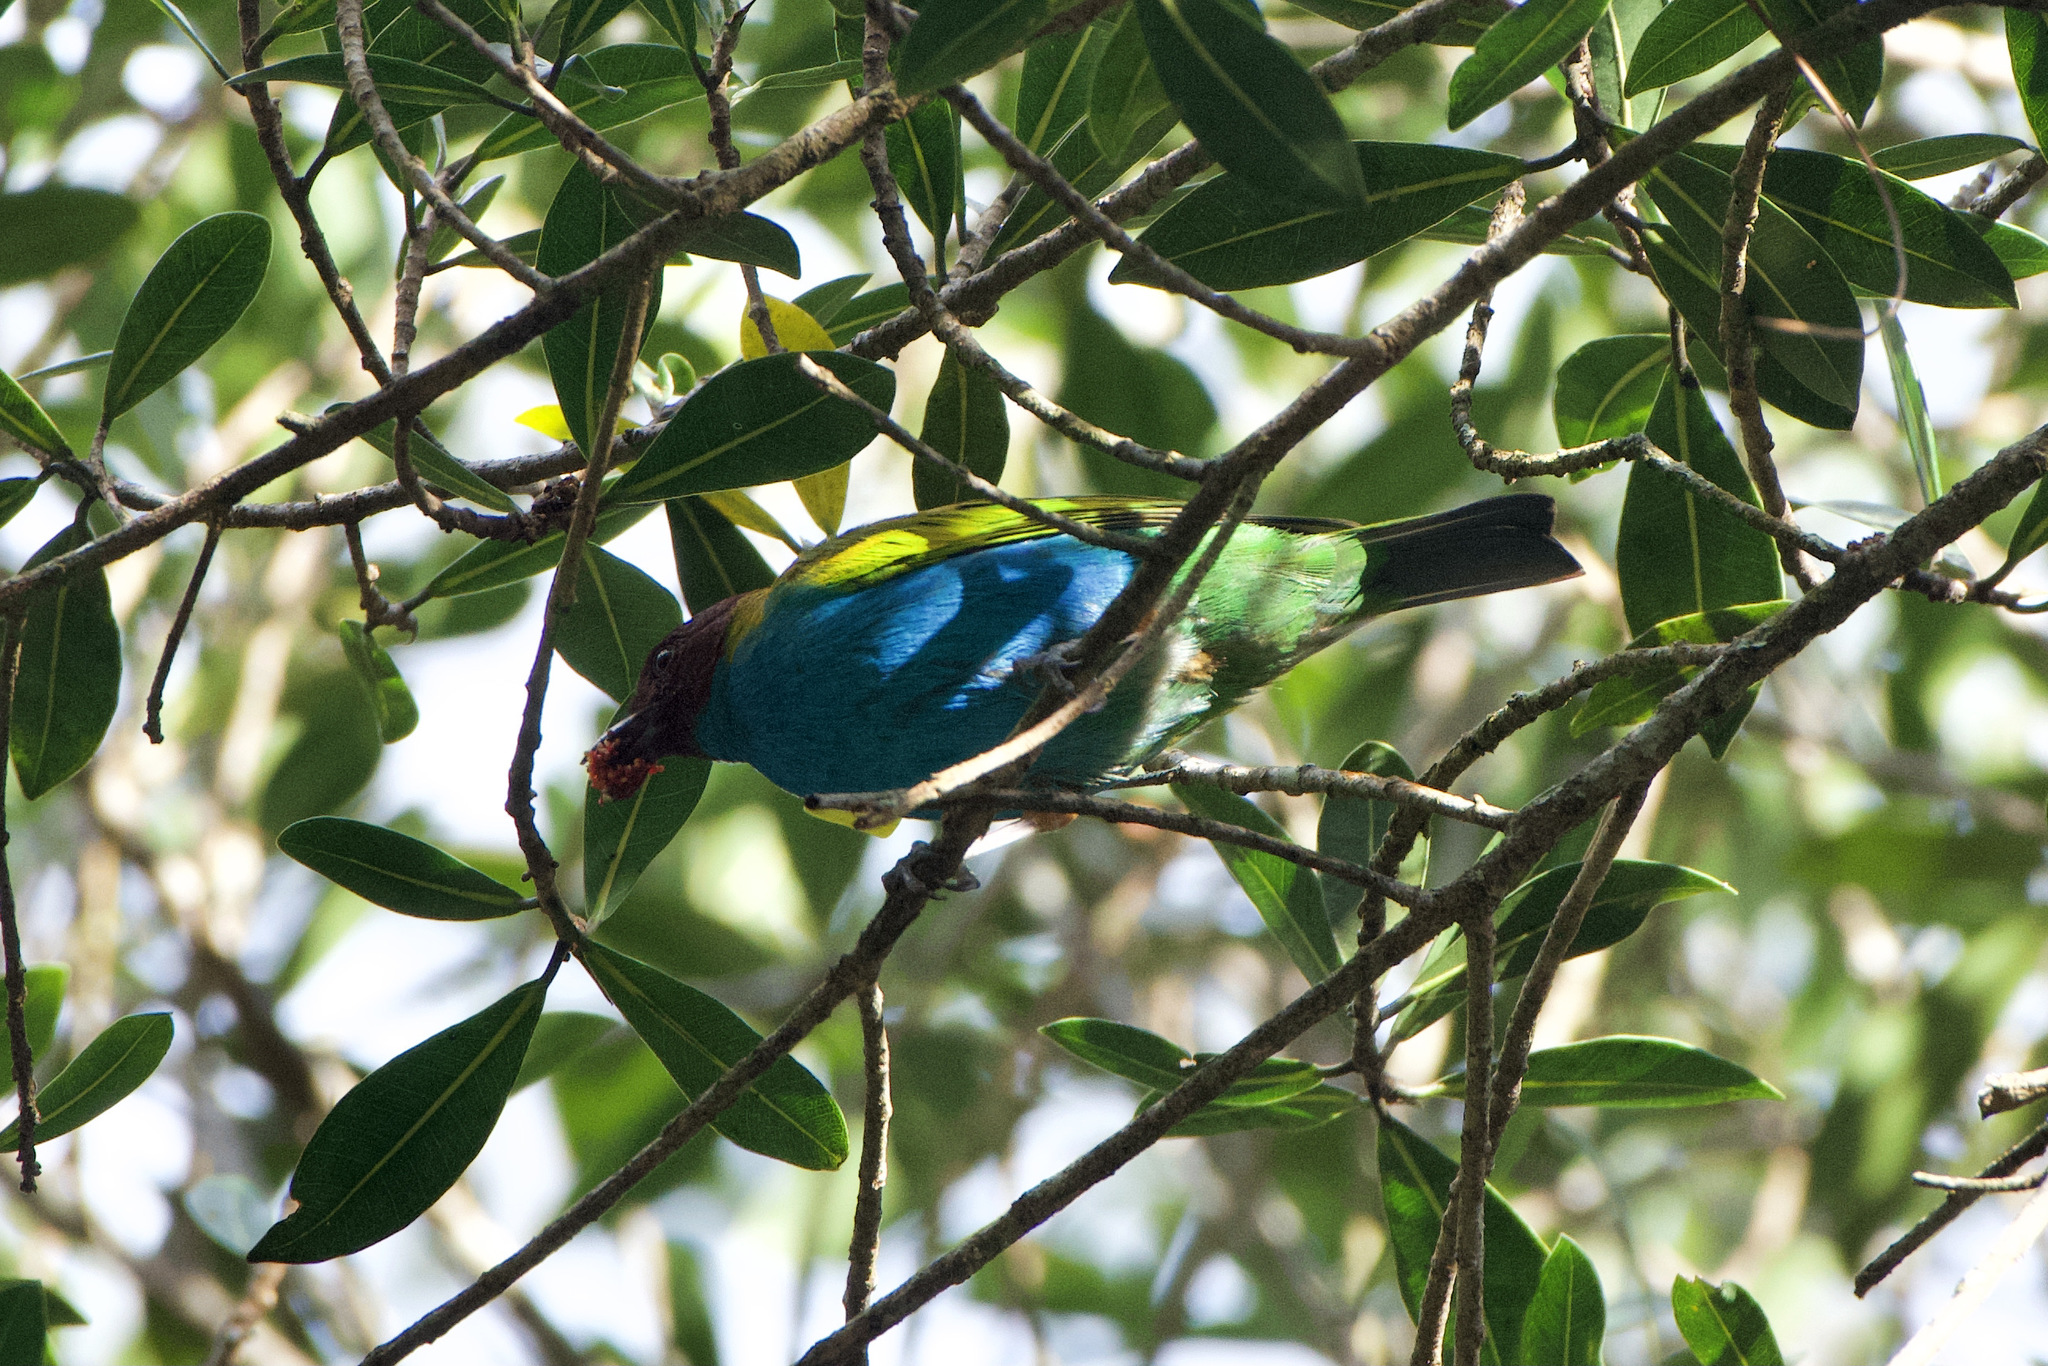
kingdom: Animalia
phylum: Chordata
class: Aves
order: Passeriformes
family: Thraupidae
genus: Tangara
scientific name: Tangara gyrola
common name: Bay-headed tanager
